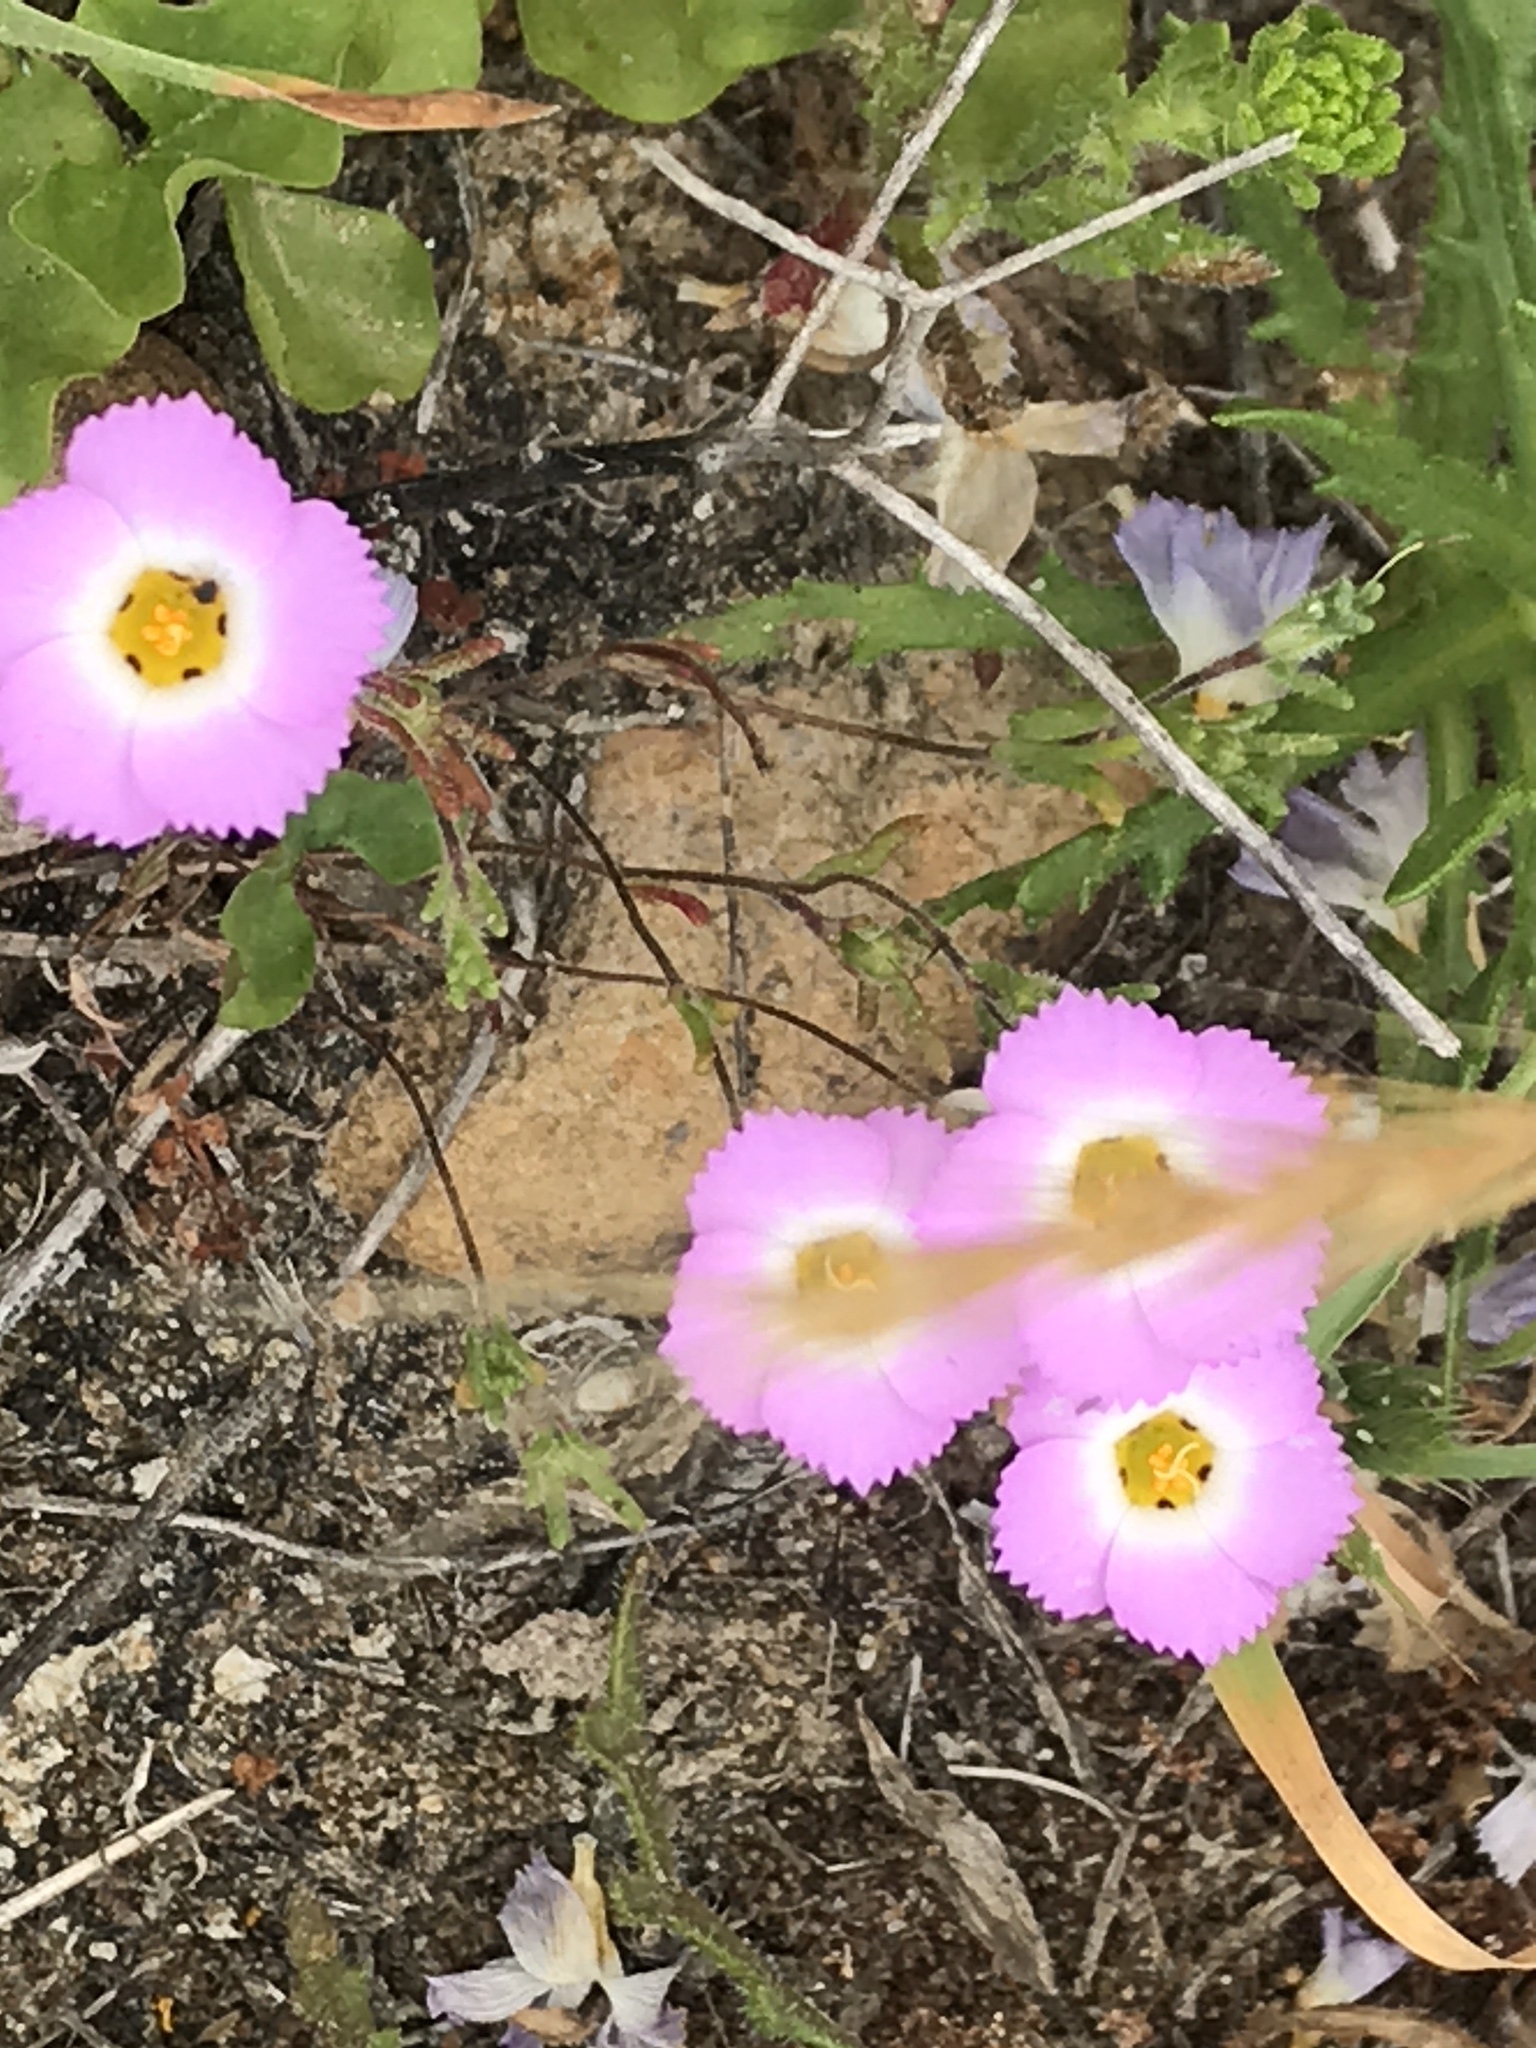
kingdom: Plantae
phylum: Tracheophyta
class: Magnoliopsida
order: Ericales
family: Polemoniaceae
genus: Linanthus
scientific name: Linanthus dianthiflorus
